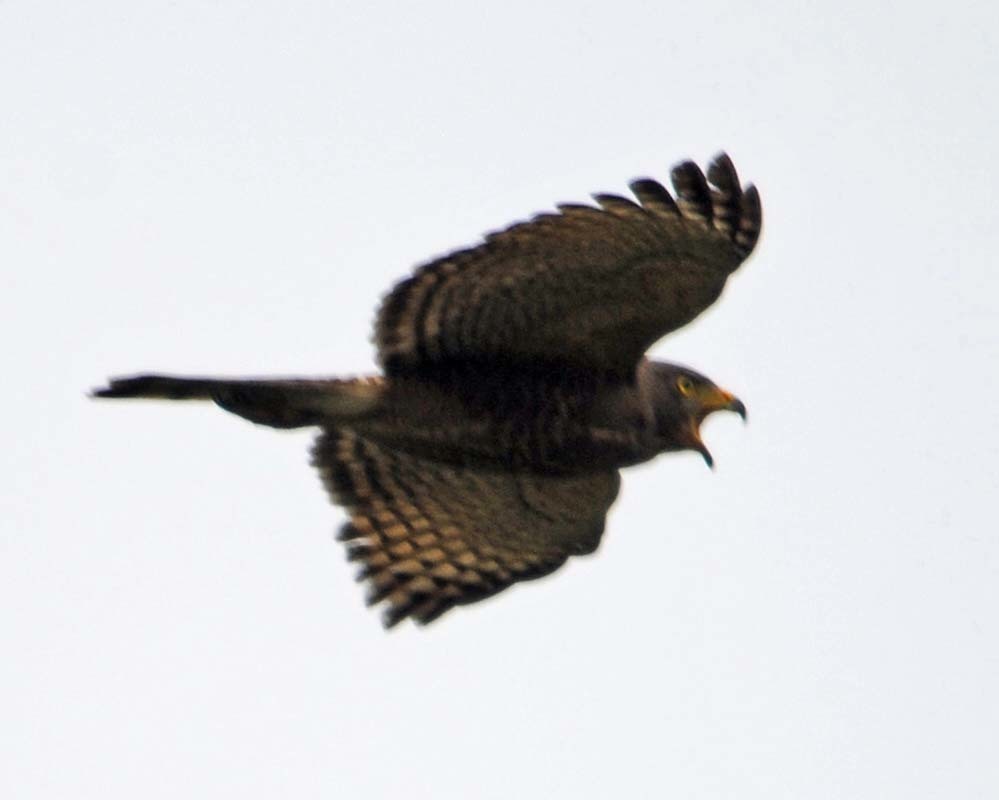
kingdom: Animalia
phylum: Chordata
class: Aves
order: Accipitriformes
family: Accipitridae
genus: Rupornis
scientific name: Rupornis magnirostris
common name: Roadside hawk
